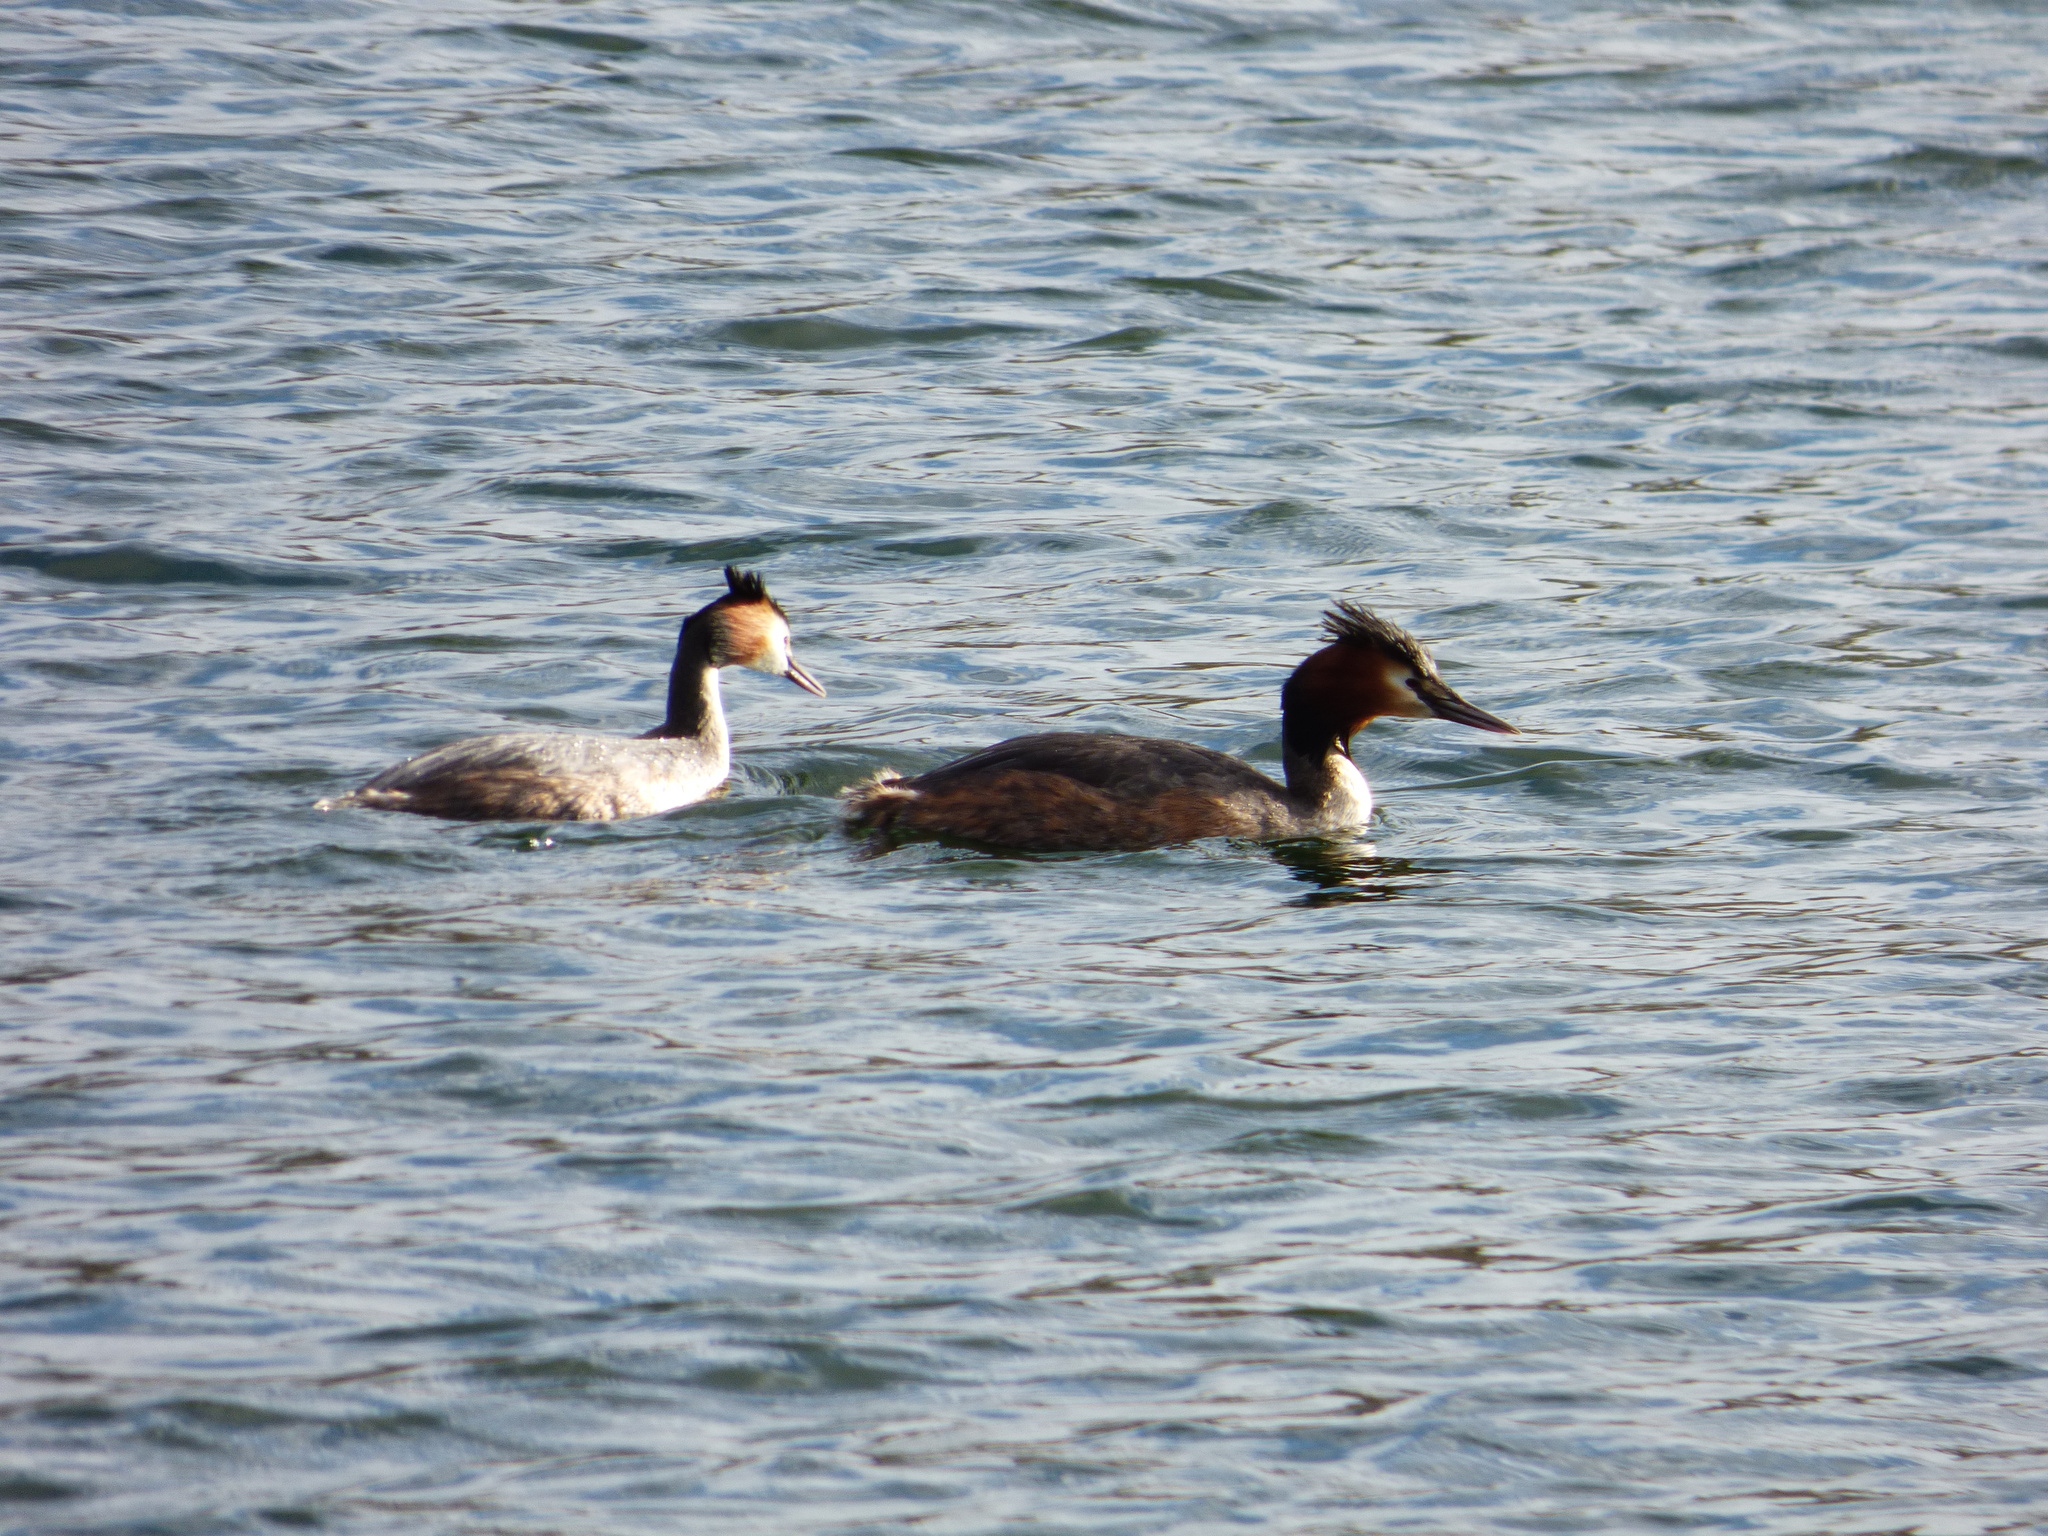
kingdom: Animalia
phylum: Chordata
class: Aves
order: Podicipediformes
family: Podicipedidae
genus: Podiceps
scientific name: Podiceps cristatus
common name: Great crested grebe
